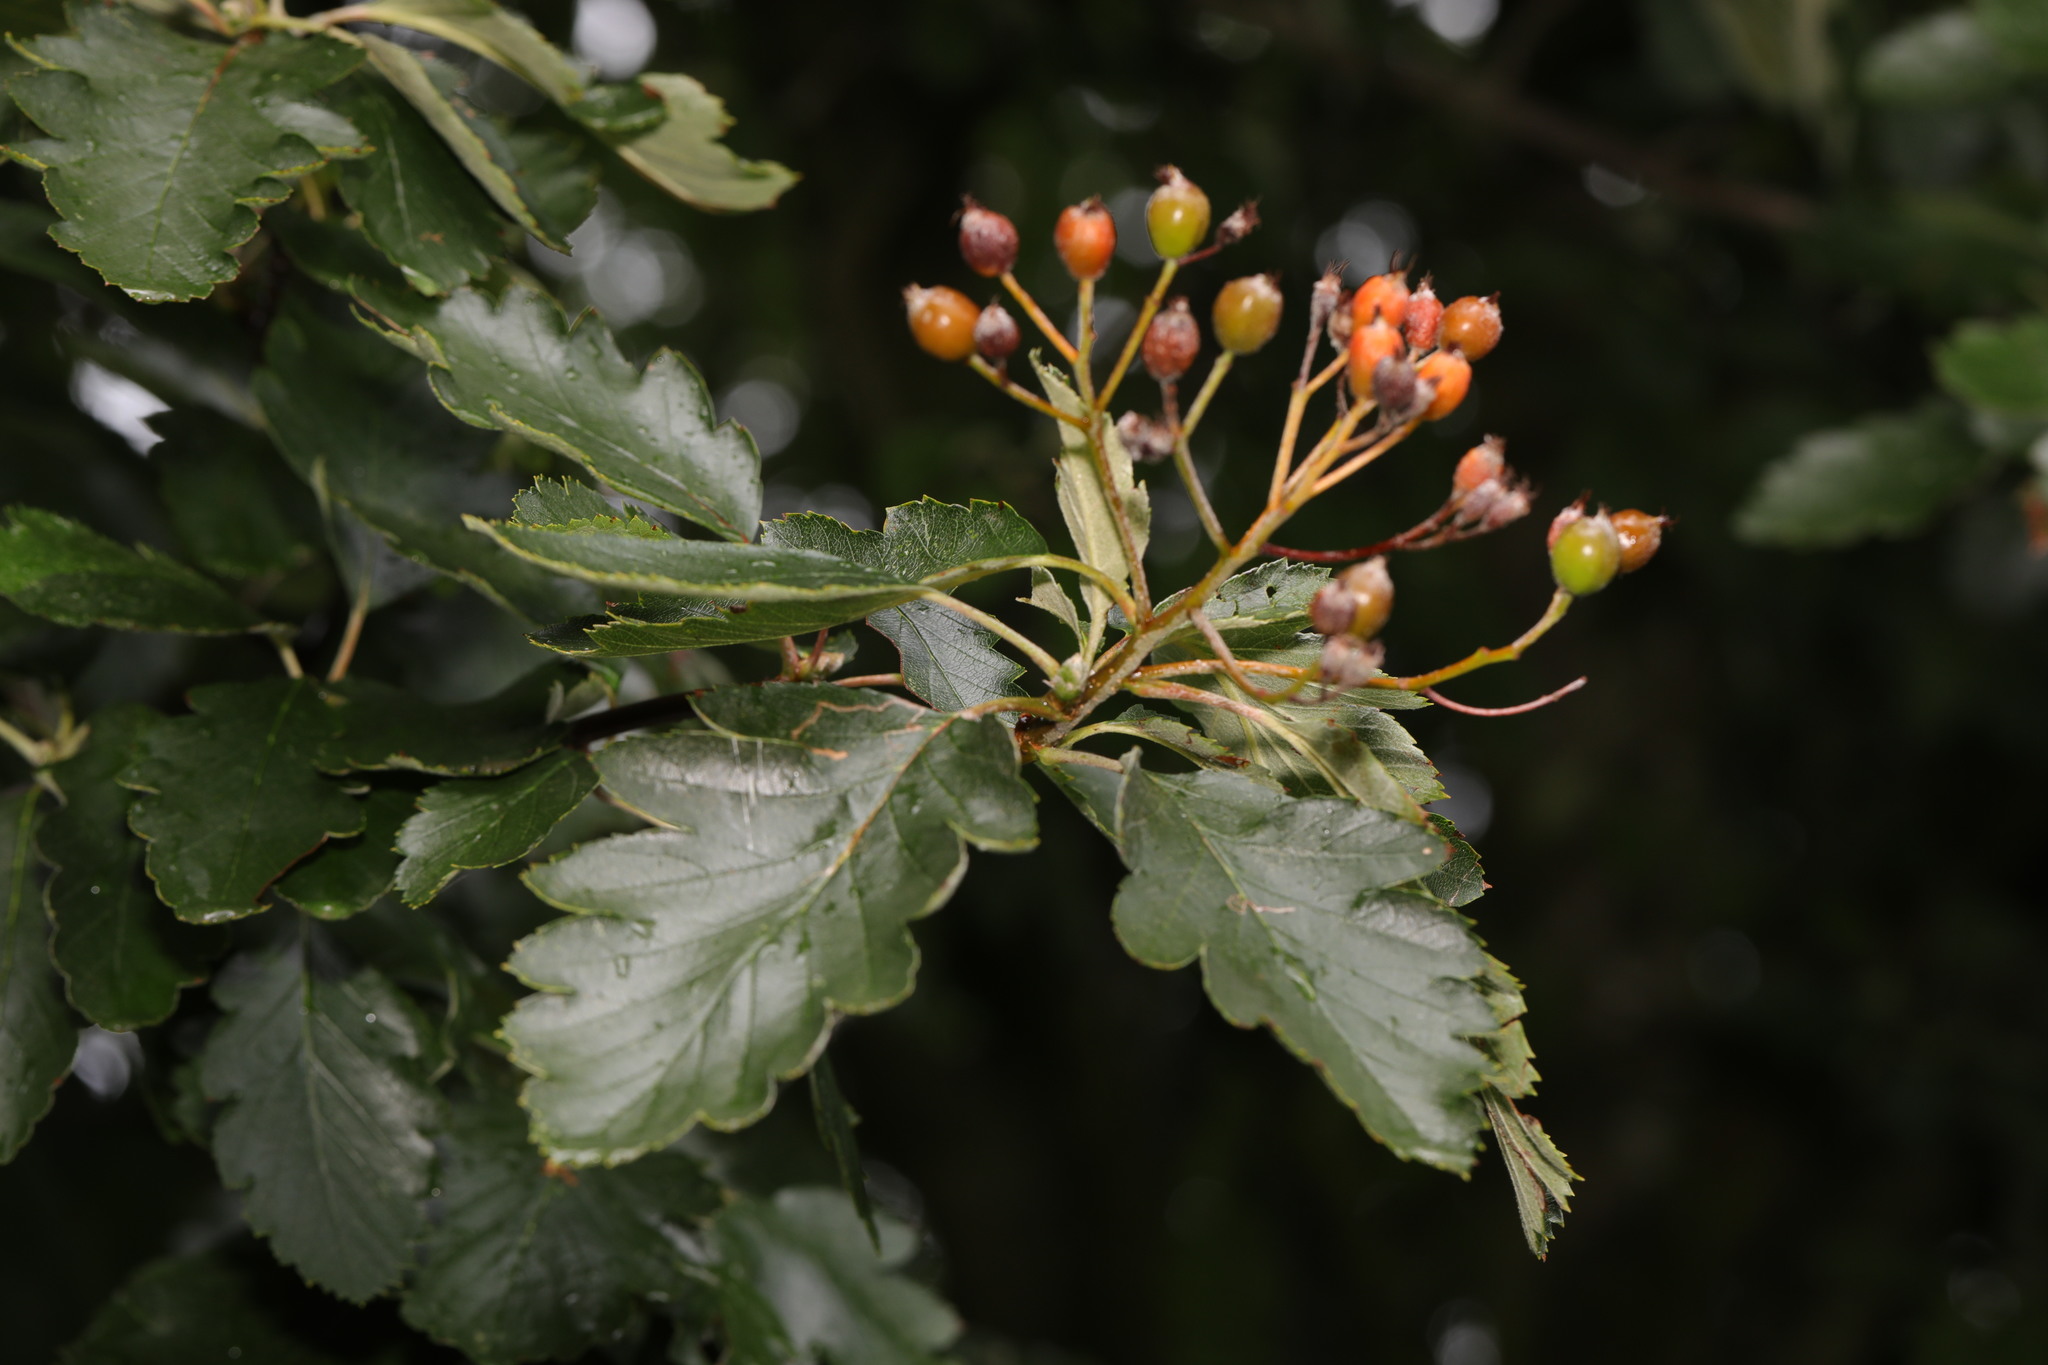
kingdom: Plantae
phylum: Tracheophyta
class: Magnoliopsida
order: Rosales
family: Rosaceae
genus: Scandosorbus
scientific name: Scandosorbus intermedia
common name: Swedish whitebeam
